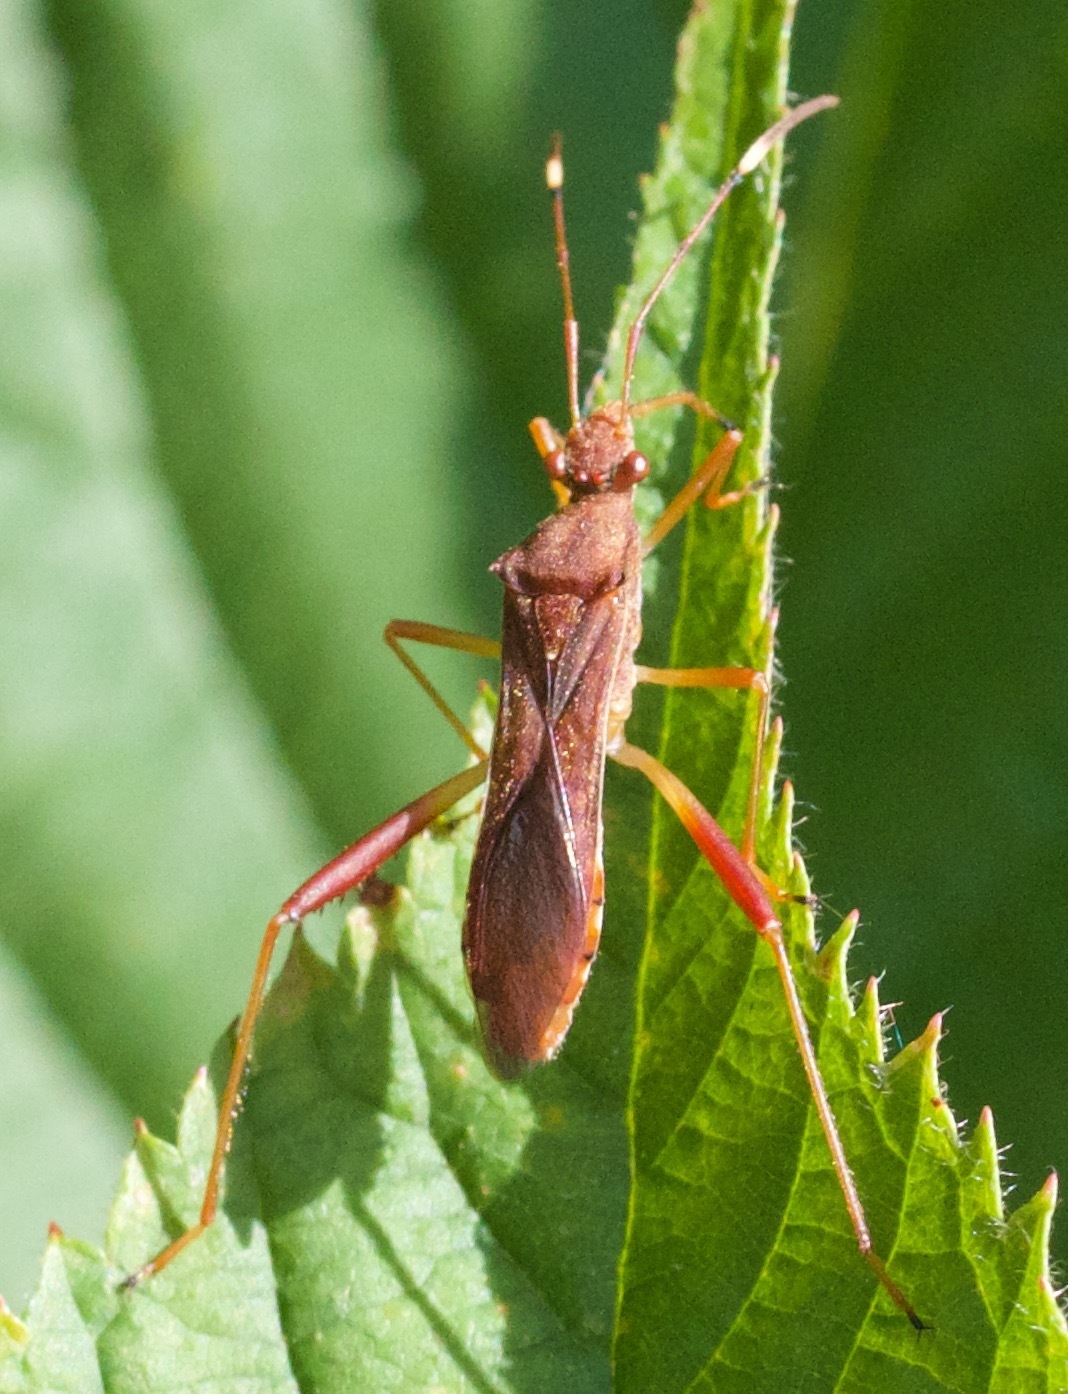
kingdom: Animalia
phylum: Arthropoda
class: Insecta
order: Hemiptera
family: Alydidae
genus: Megalotomus
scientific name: Megalotomus quinquespinosus
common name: Lupine bug
